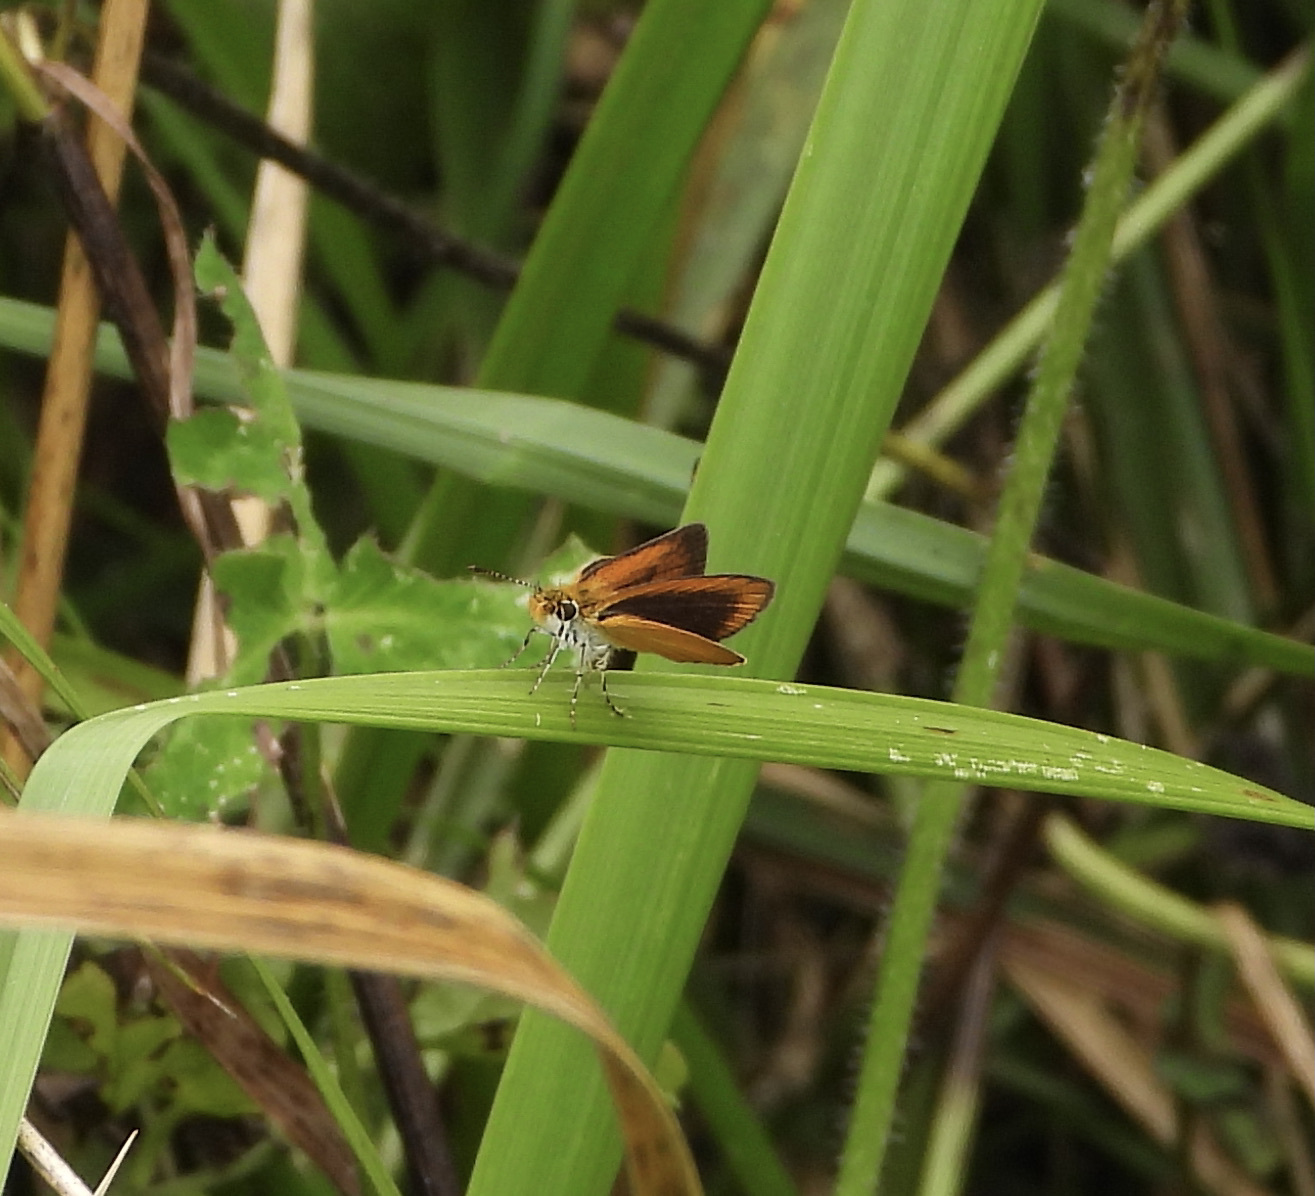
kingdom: Animalia
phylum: Arthropoda
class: Insecta
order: Lepidoptera
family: Hesperiidae
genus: Ancyloxypha
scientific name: Ancyloxypha numitor
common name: Least skipper
